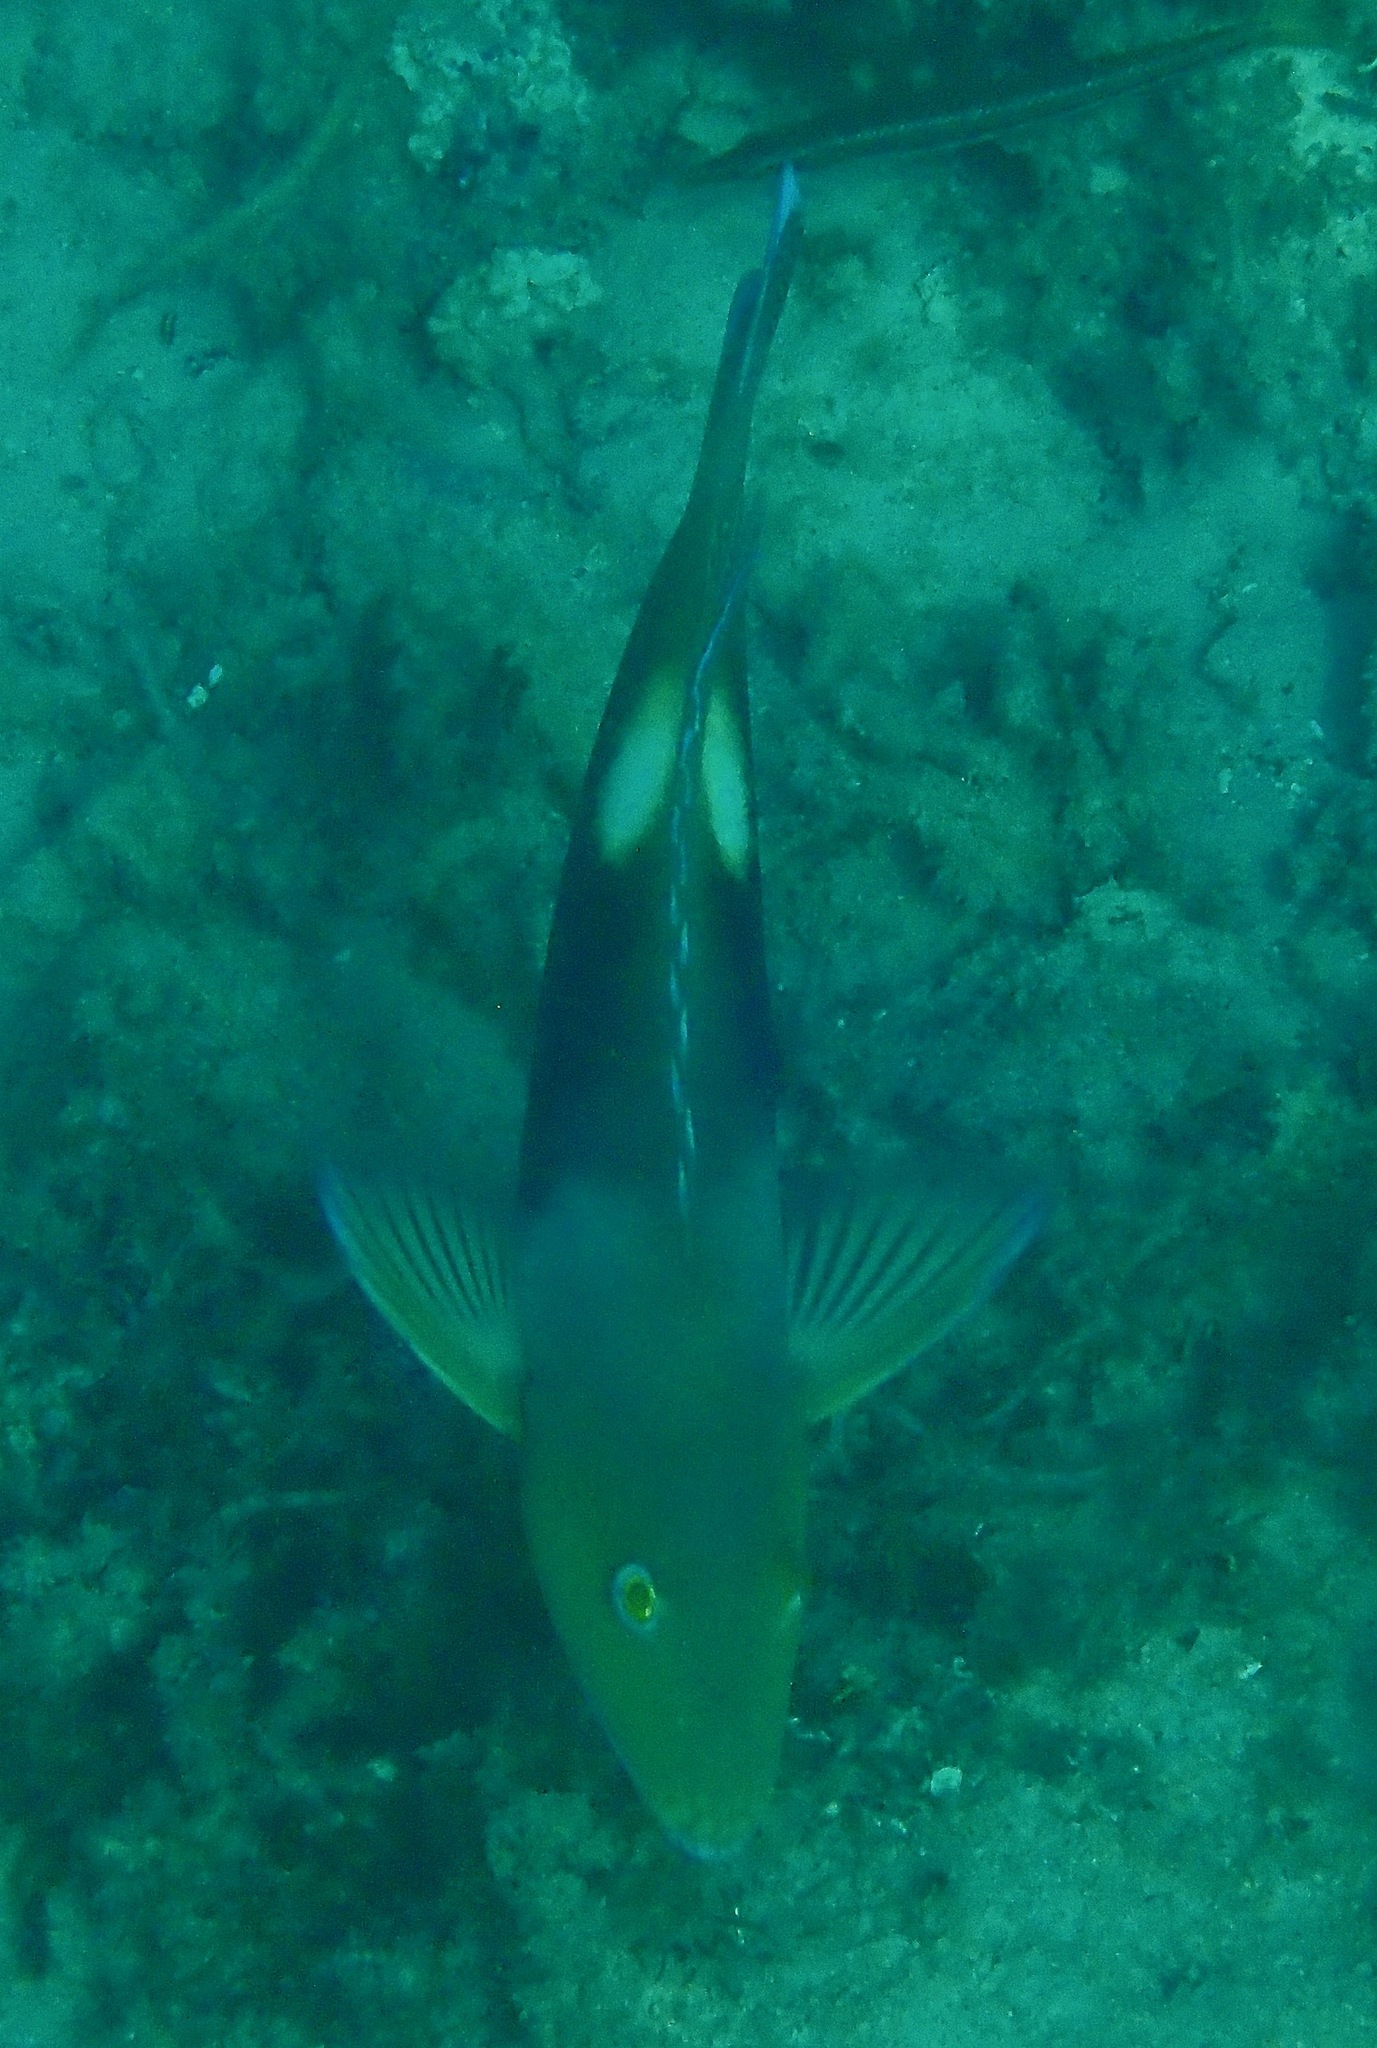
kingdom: Animalia
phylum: Chordata
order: Perciformes
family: Labridae
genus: Choerodon
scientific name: Choerodon cyanodus
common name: Blue tuskfish
